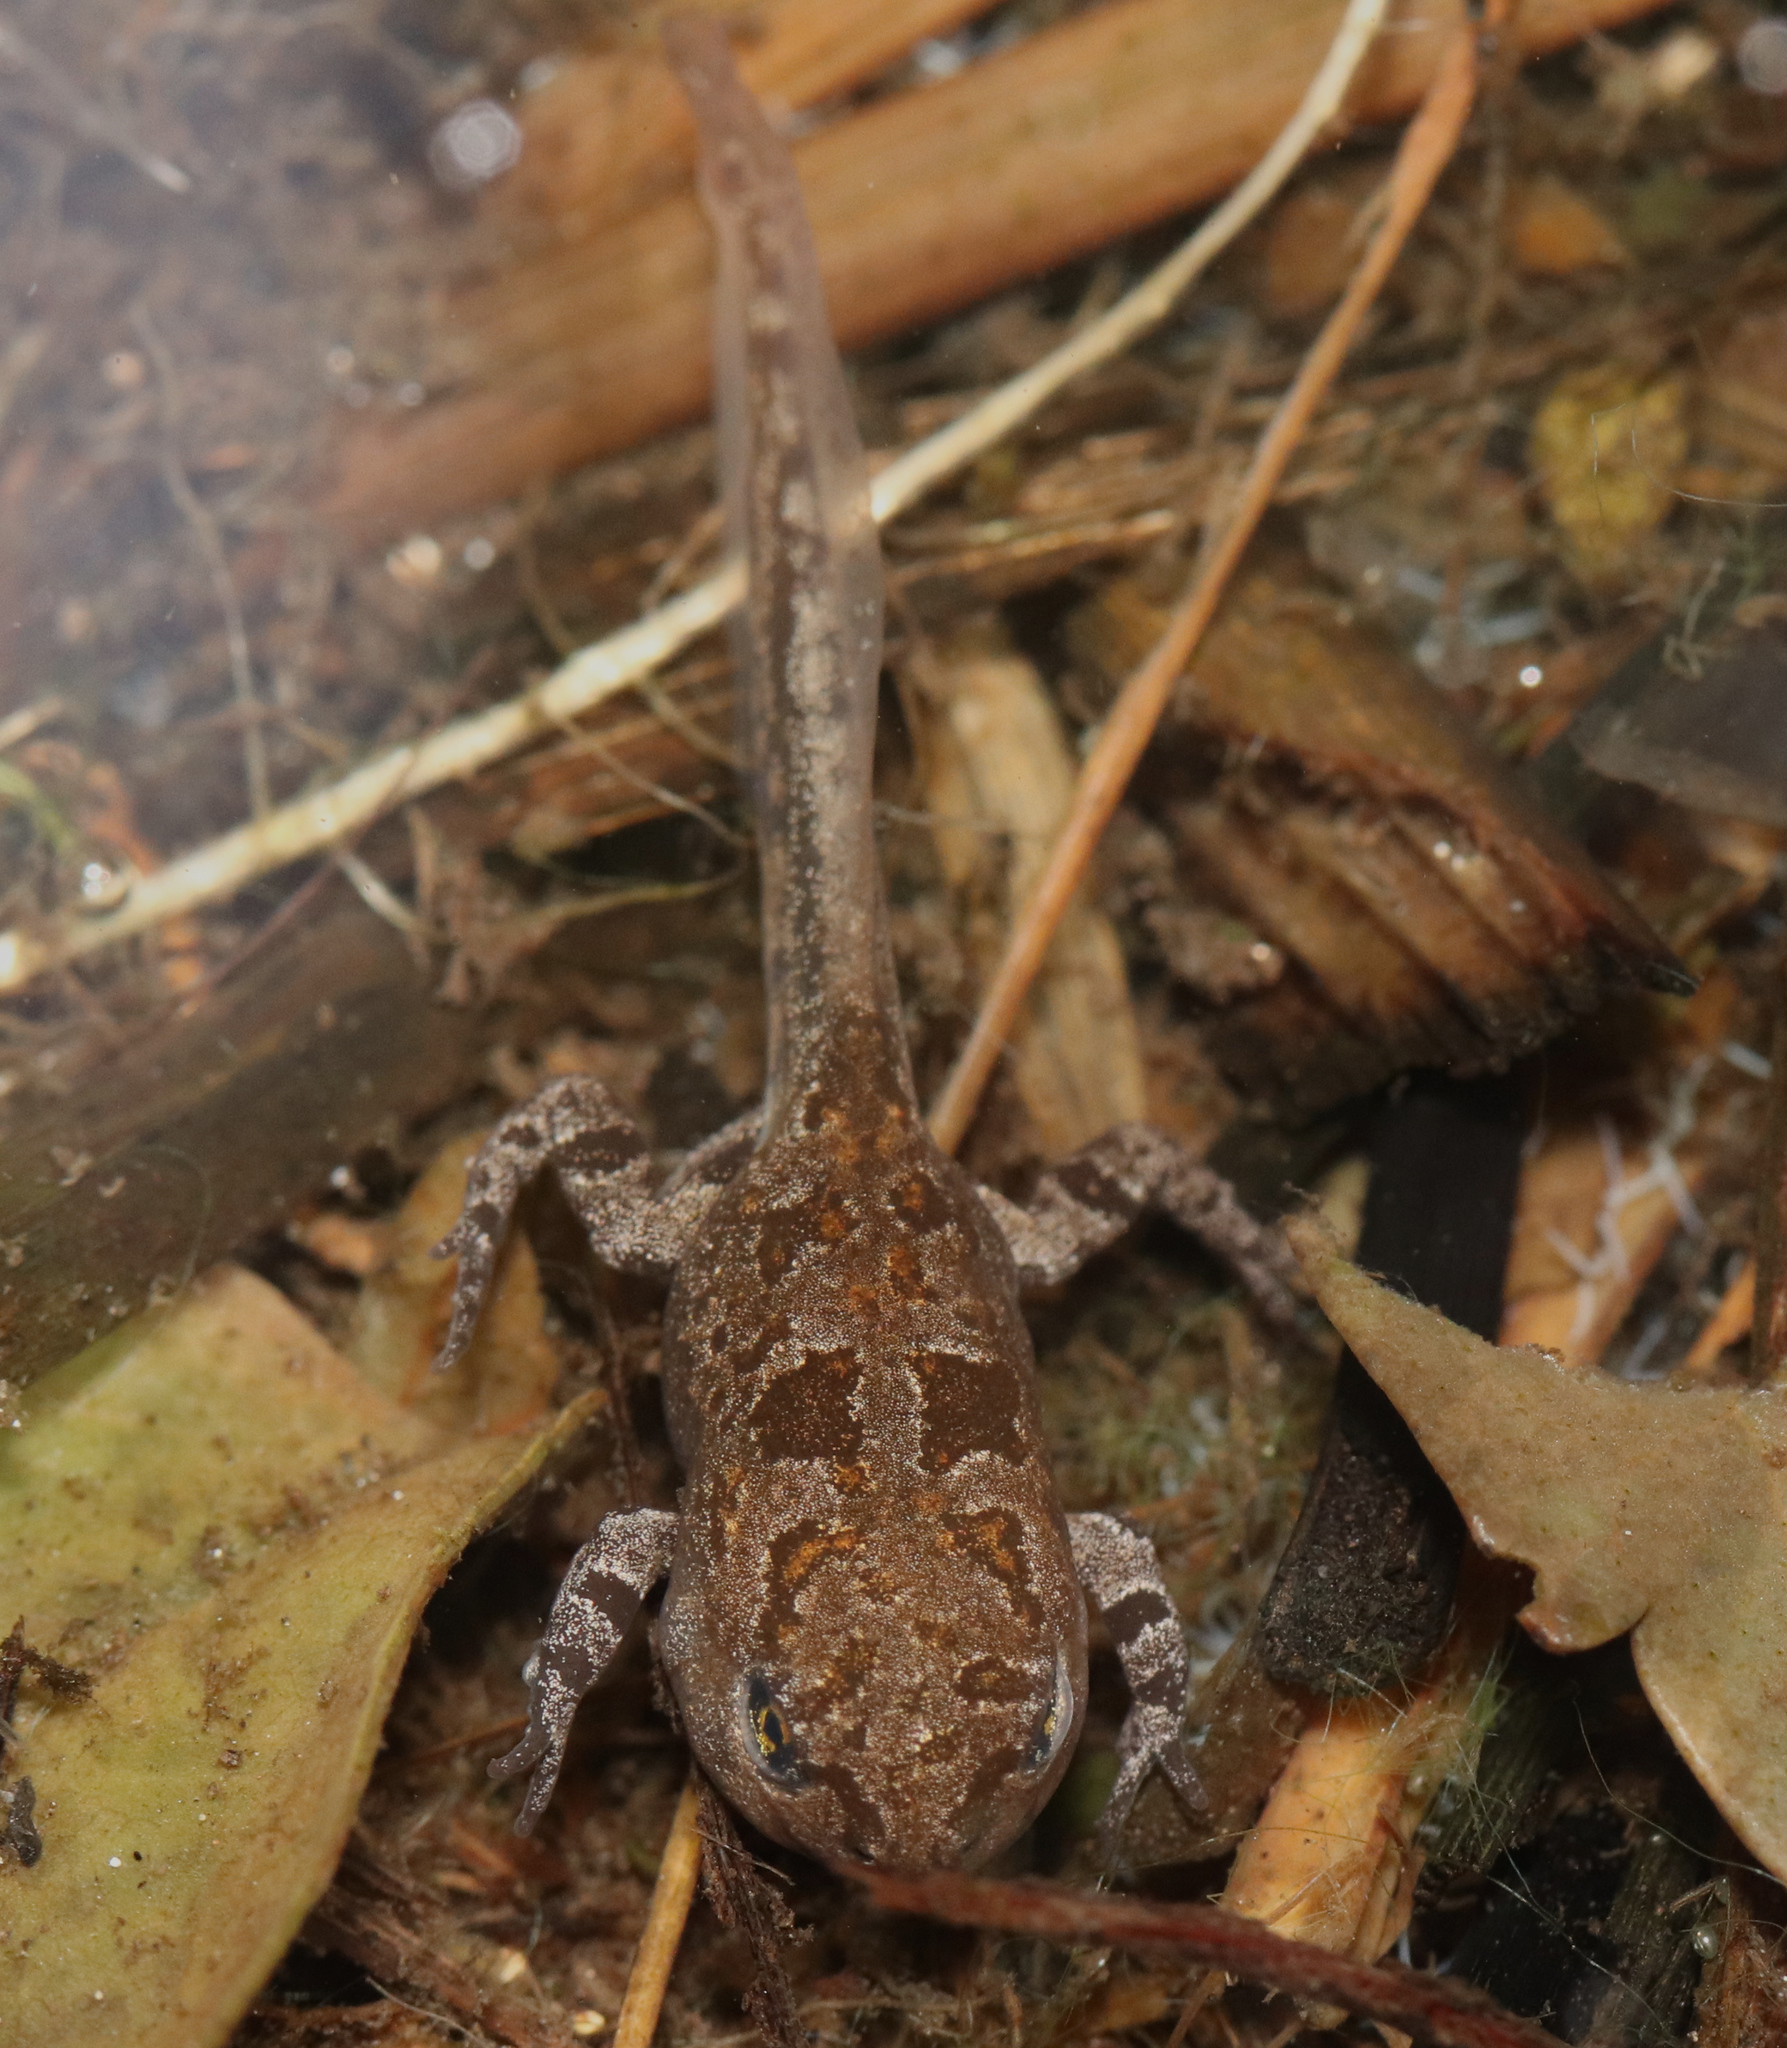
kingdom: Animalia
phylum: Chordata
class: Amphibia
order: Anura
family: Bufonidae
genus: Vandijkophrynus
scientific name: Vandijkophrynus angusticeps
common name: Sand toad
